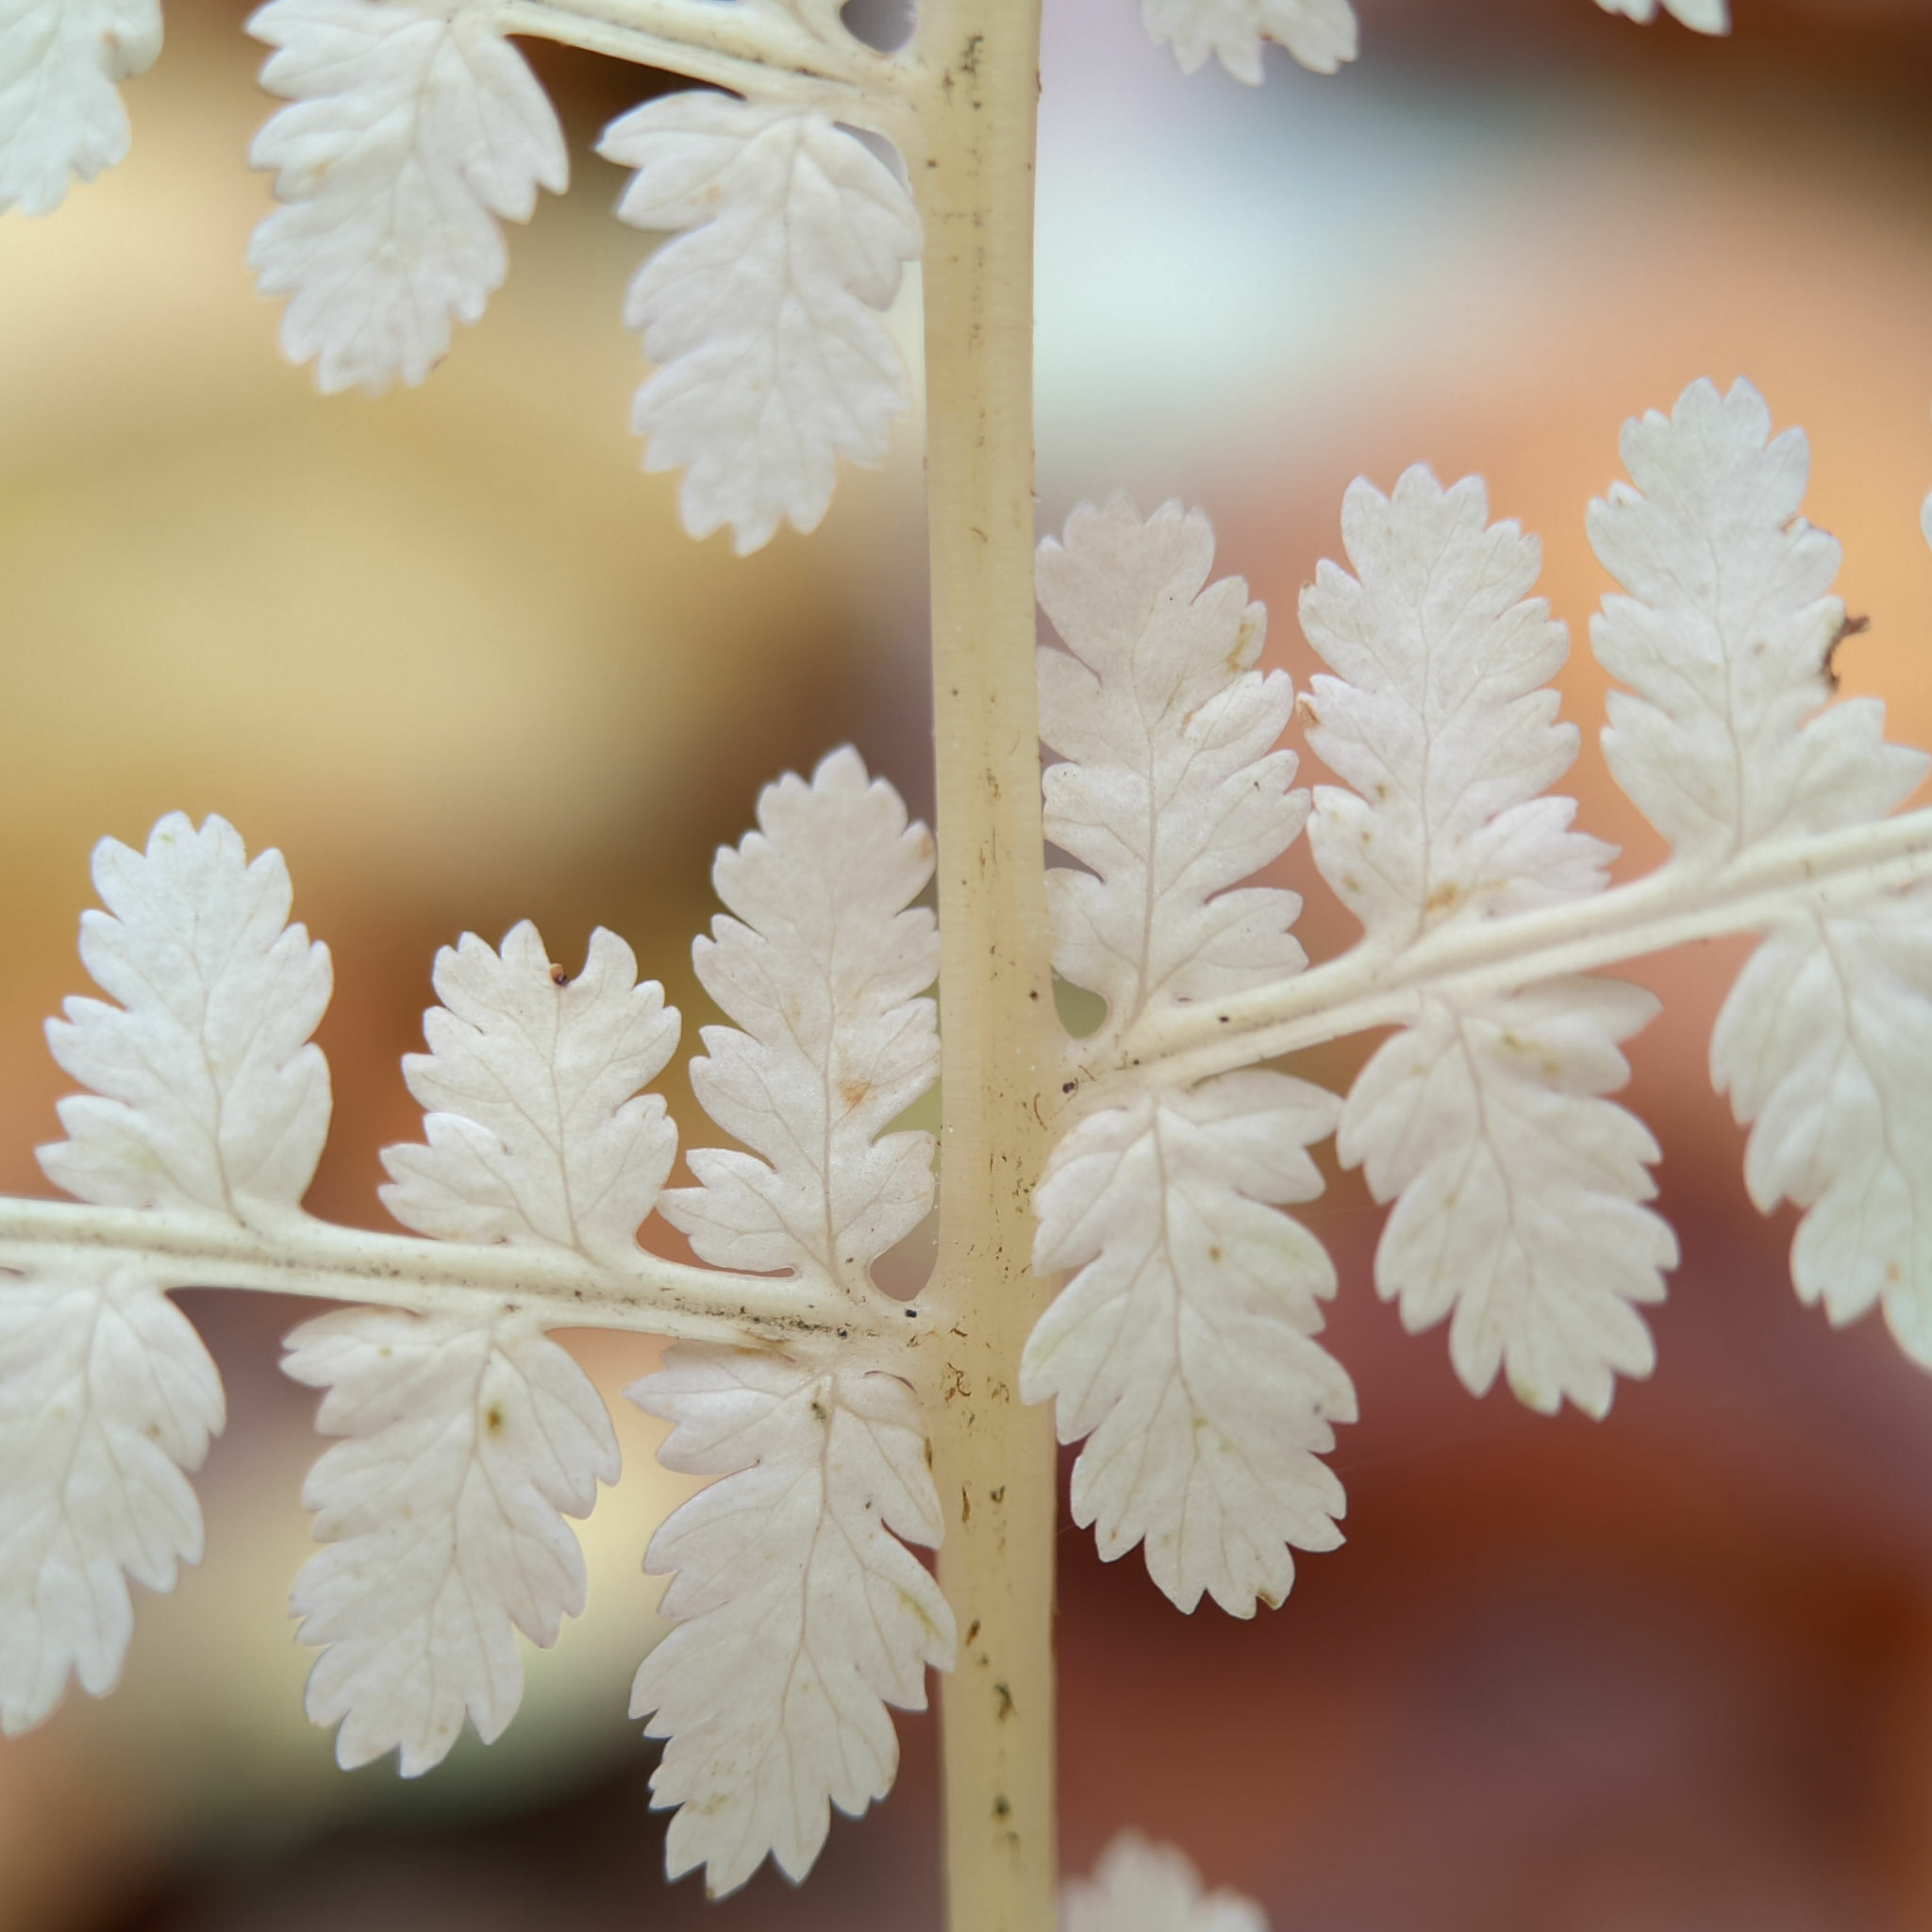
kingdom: Plantae
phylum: Tracheophyta
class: Polypodiopsida
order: Polypodiales
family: Athyriaceae
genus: Athyrium
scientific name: Athyrium filix-femina
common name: Lady fern
